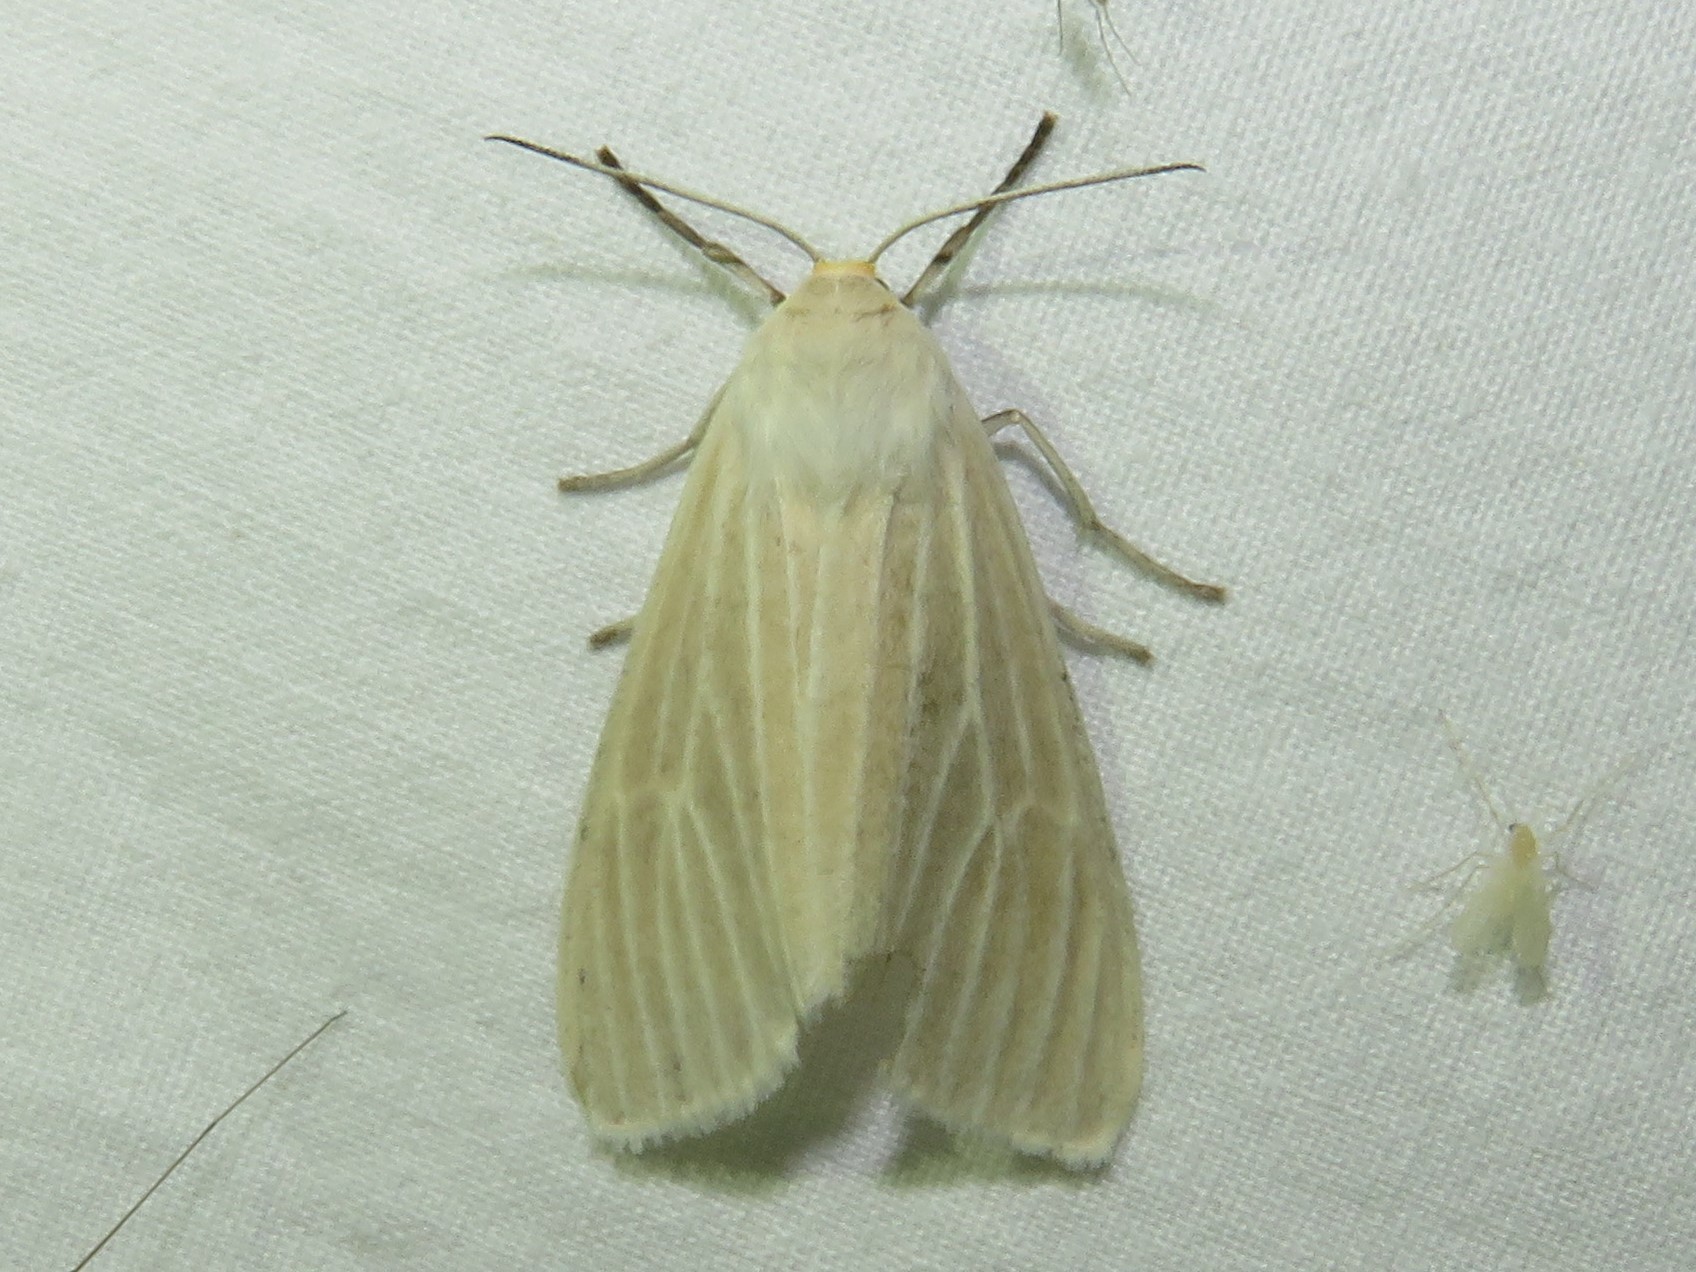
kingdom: Animalia
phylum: Arthropoda
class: Insecta
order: Lepidoptera
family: Erebidae
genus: Cycnia
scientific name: Cycnia oregonensis
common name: Oregon cycnia moth
